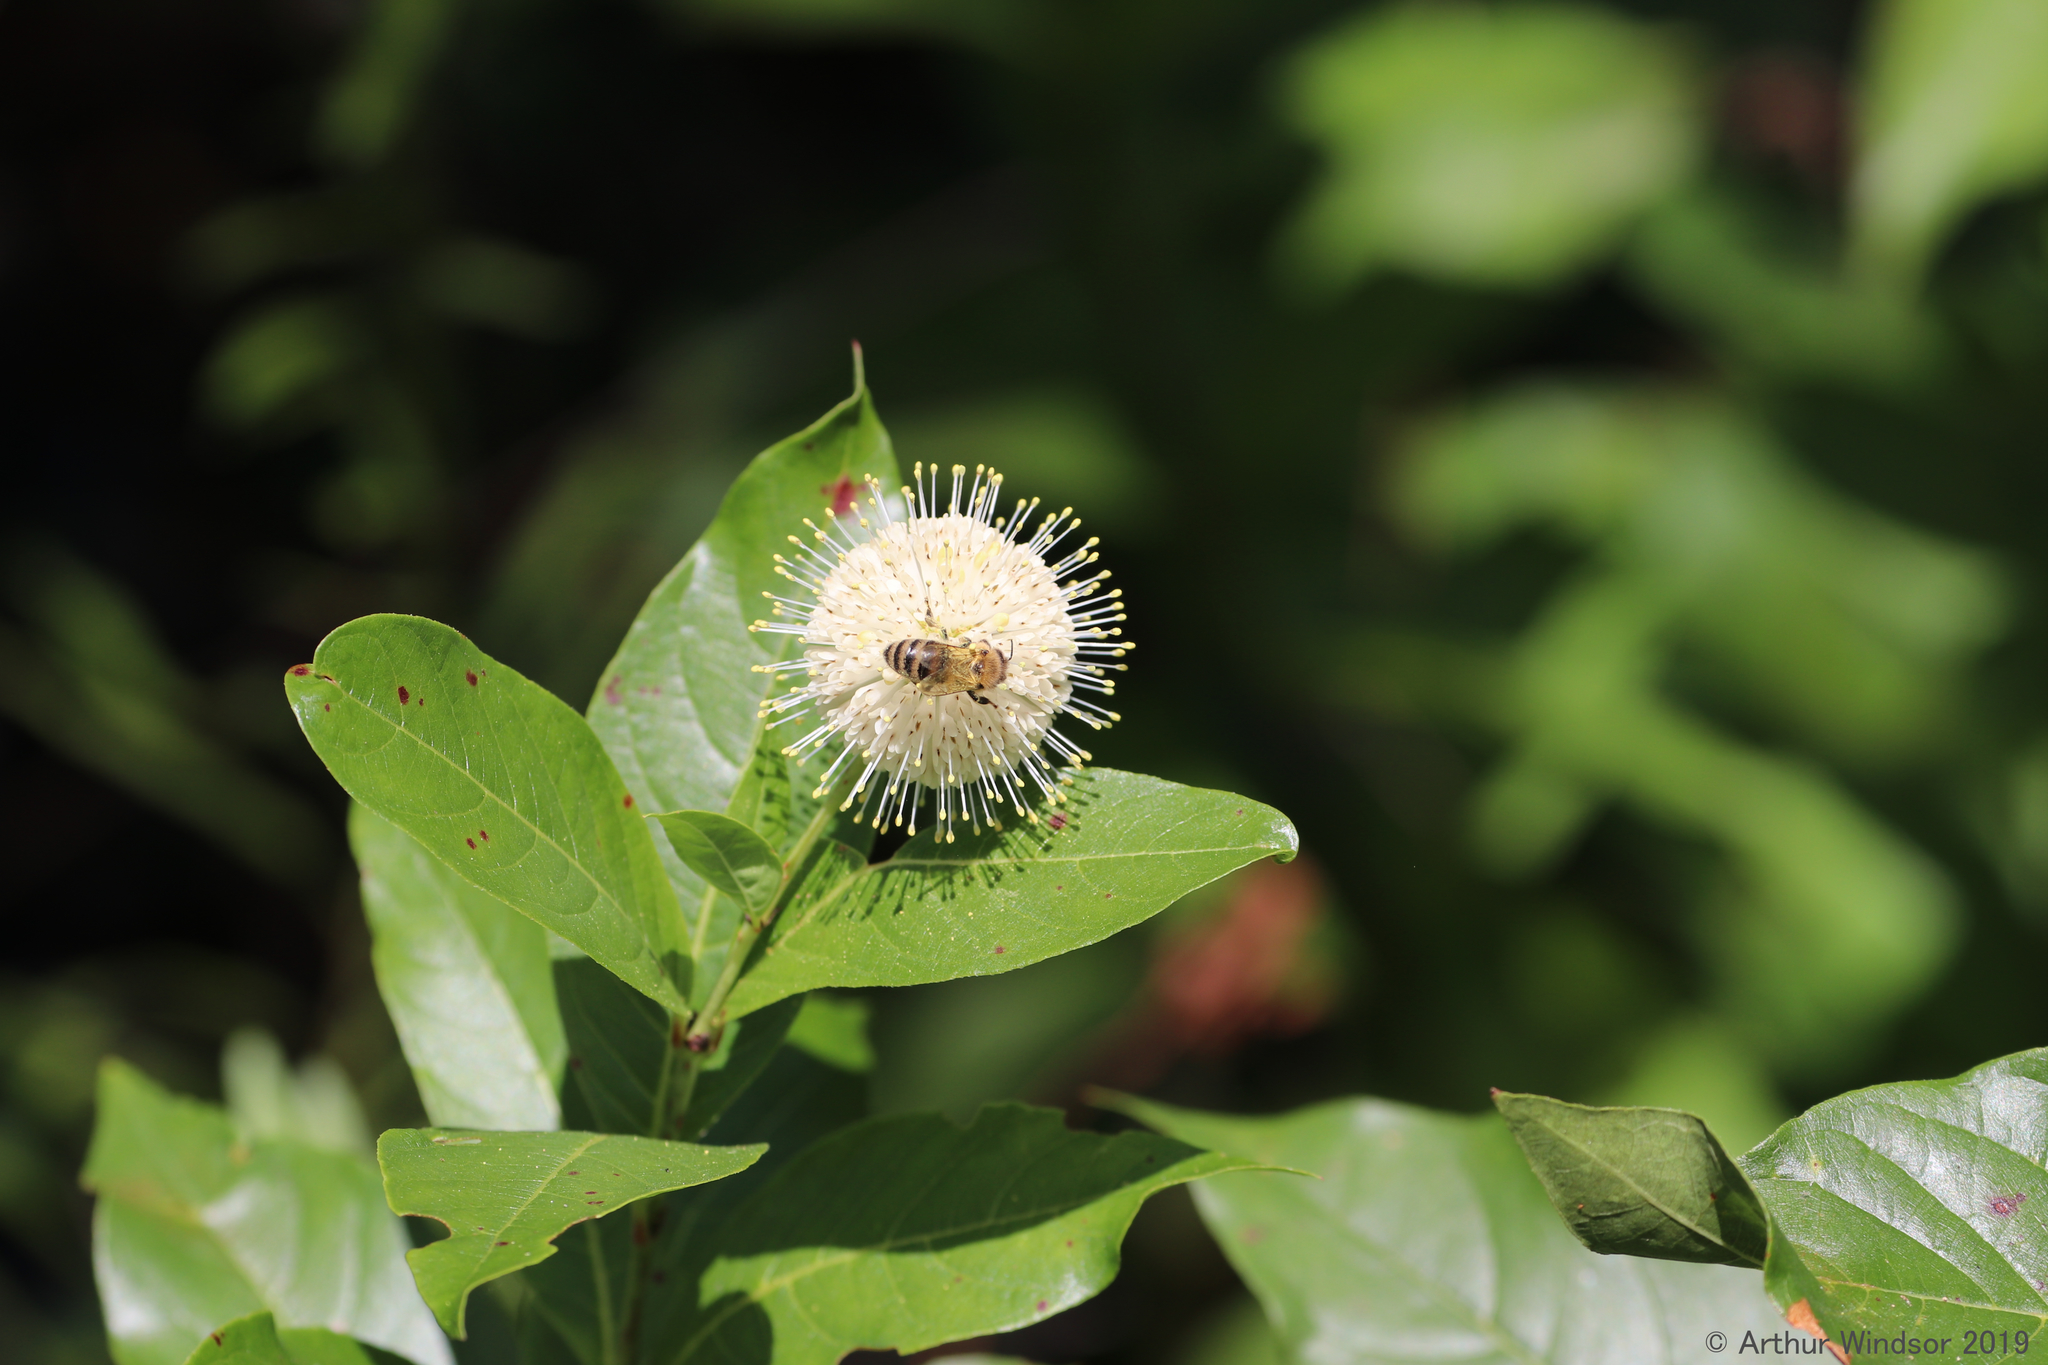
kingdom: Animalia
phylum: Arthropoda
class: Insecta
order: Hymenoptera
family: Apidae
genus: Apis
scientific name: Apis mellifera
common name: Honey bee
